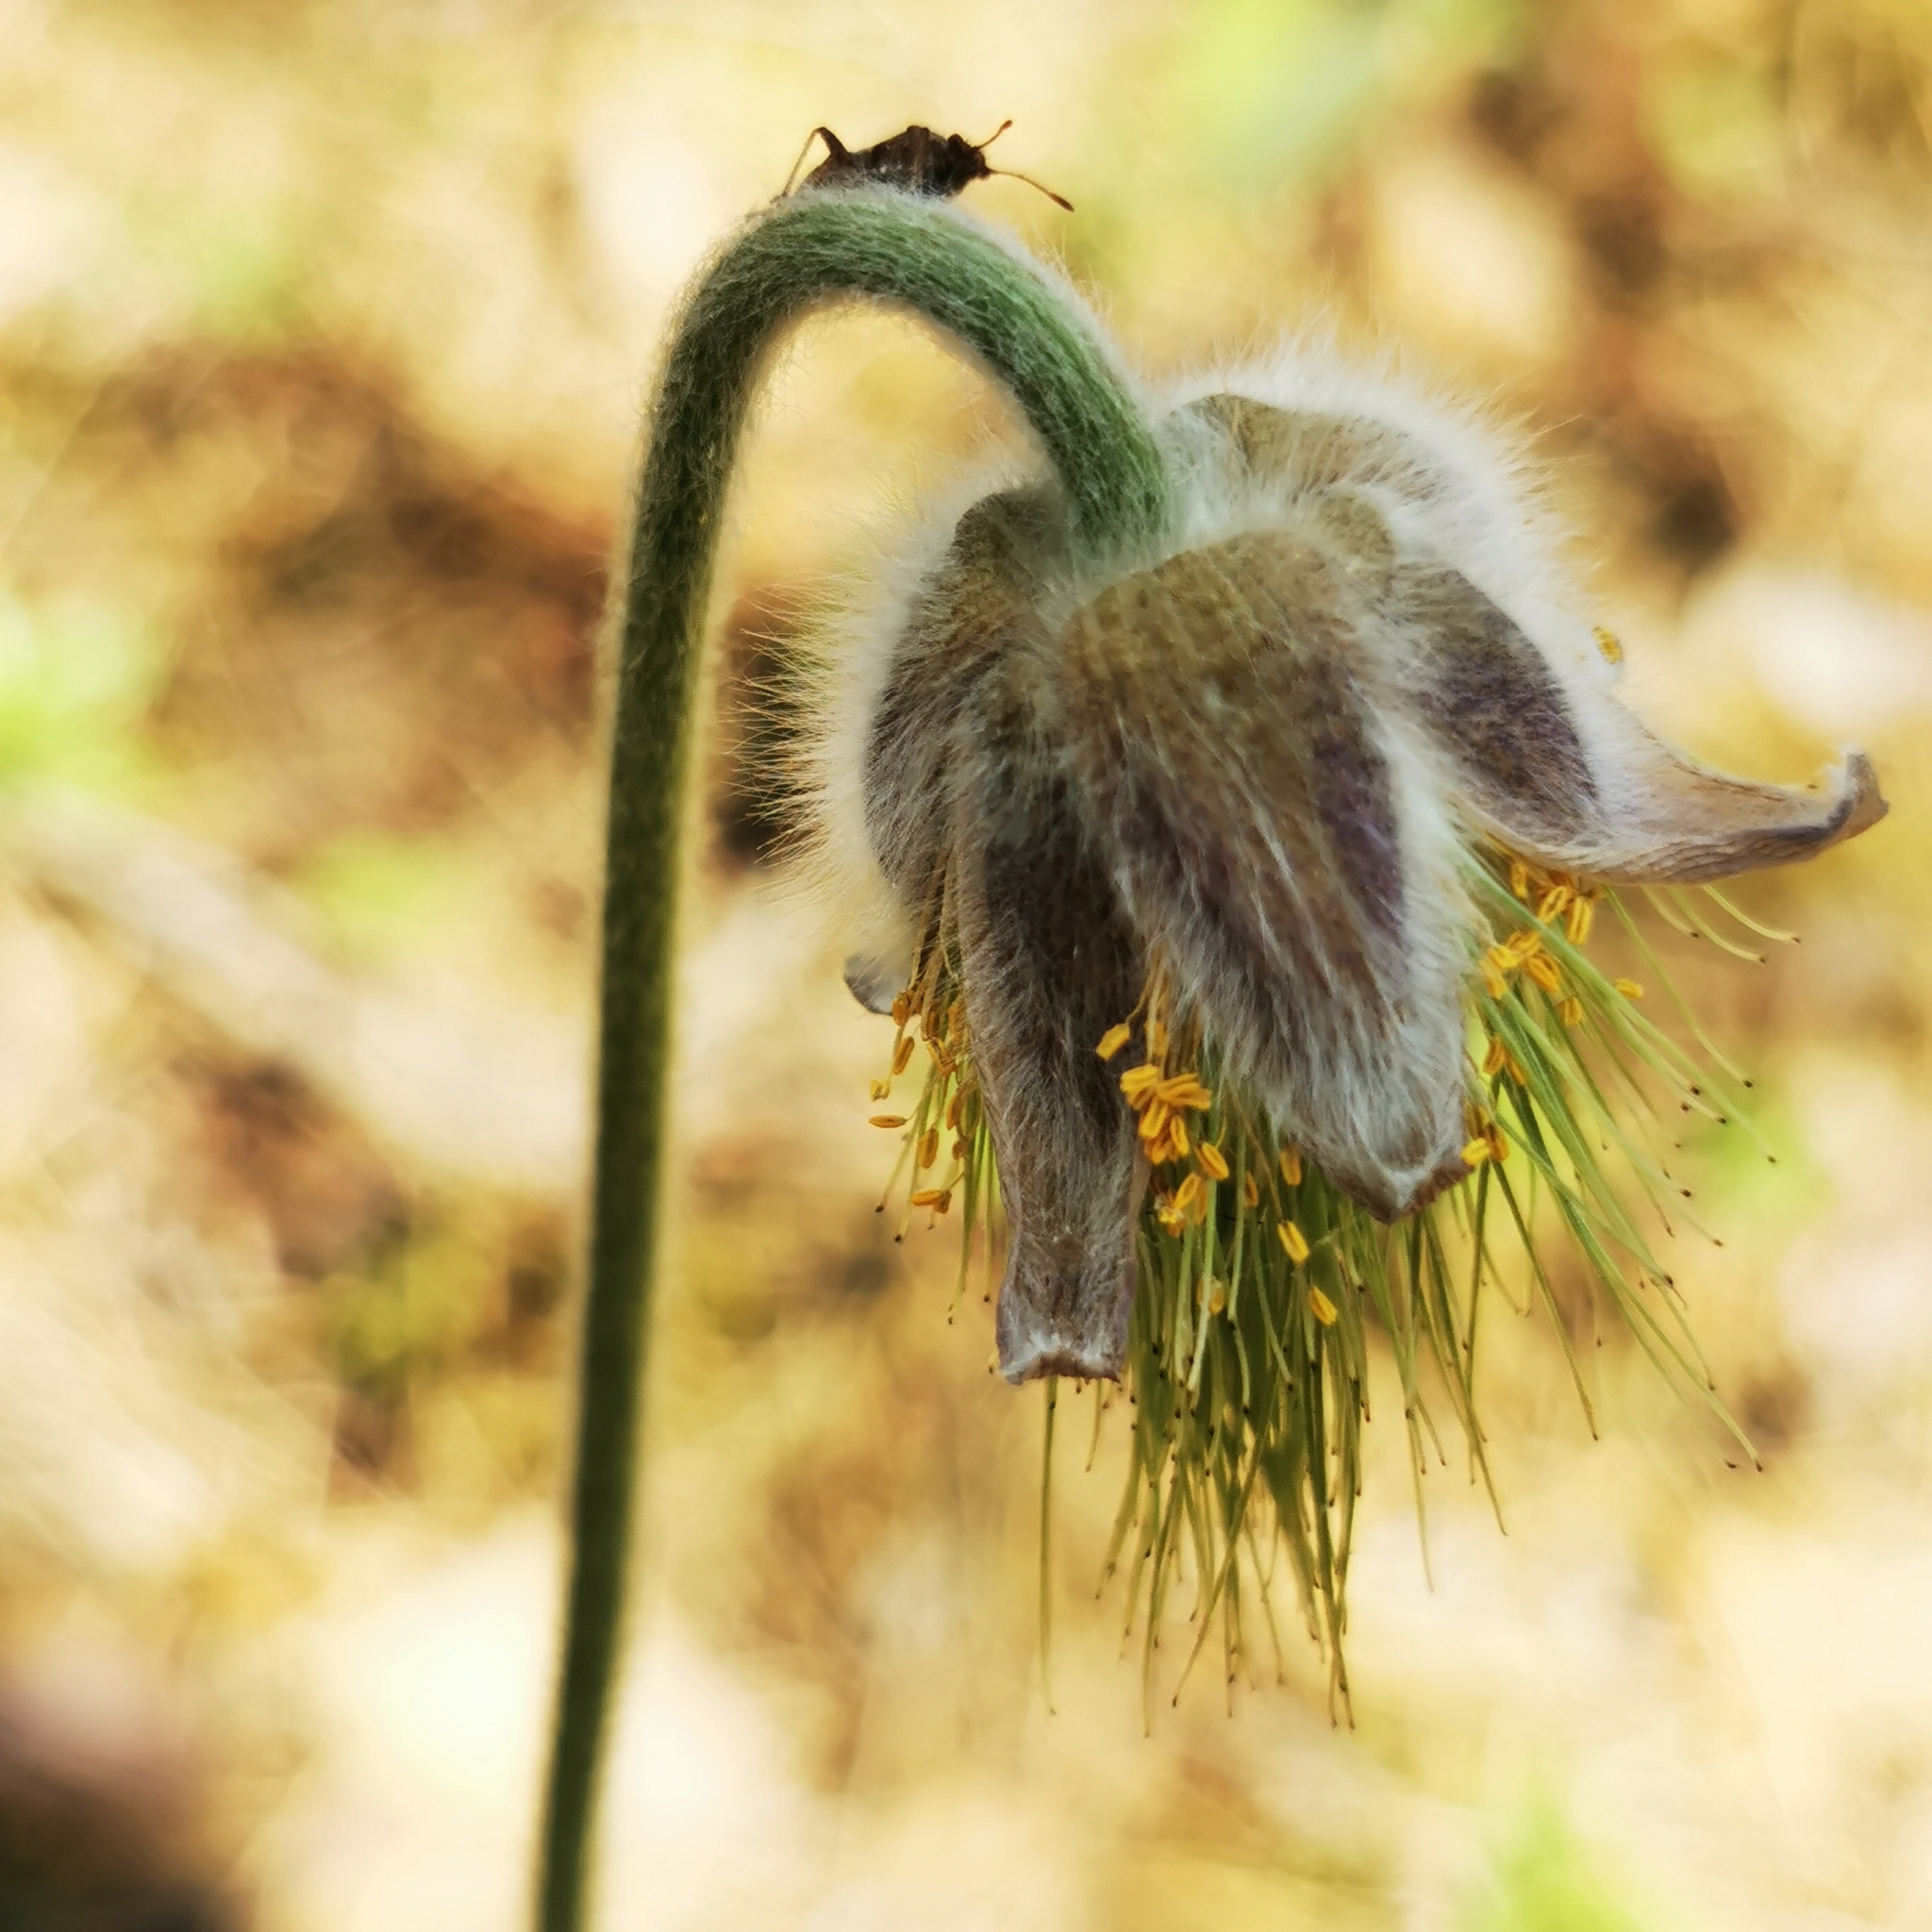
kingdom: Plantae
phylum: Tracheophyta
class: Magnoliopsida
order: Ranunculales
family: Ranunculaceae
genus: Pulsatilla
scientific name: Pulsatilla pratensis
